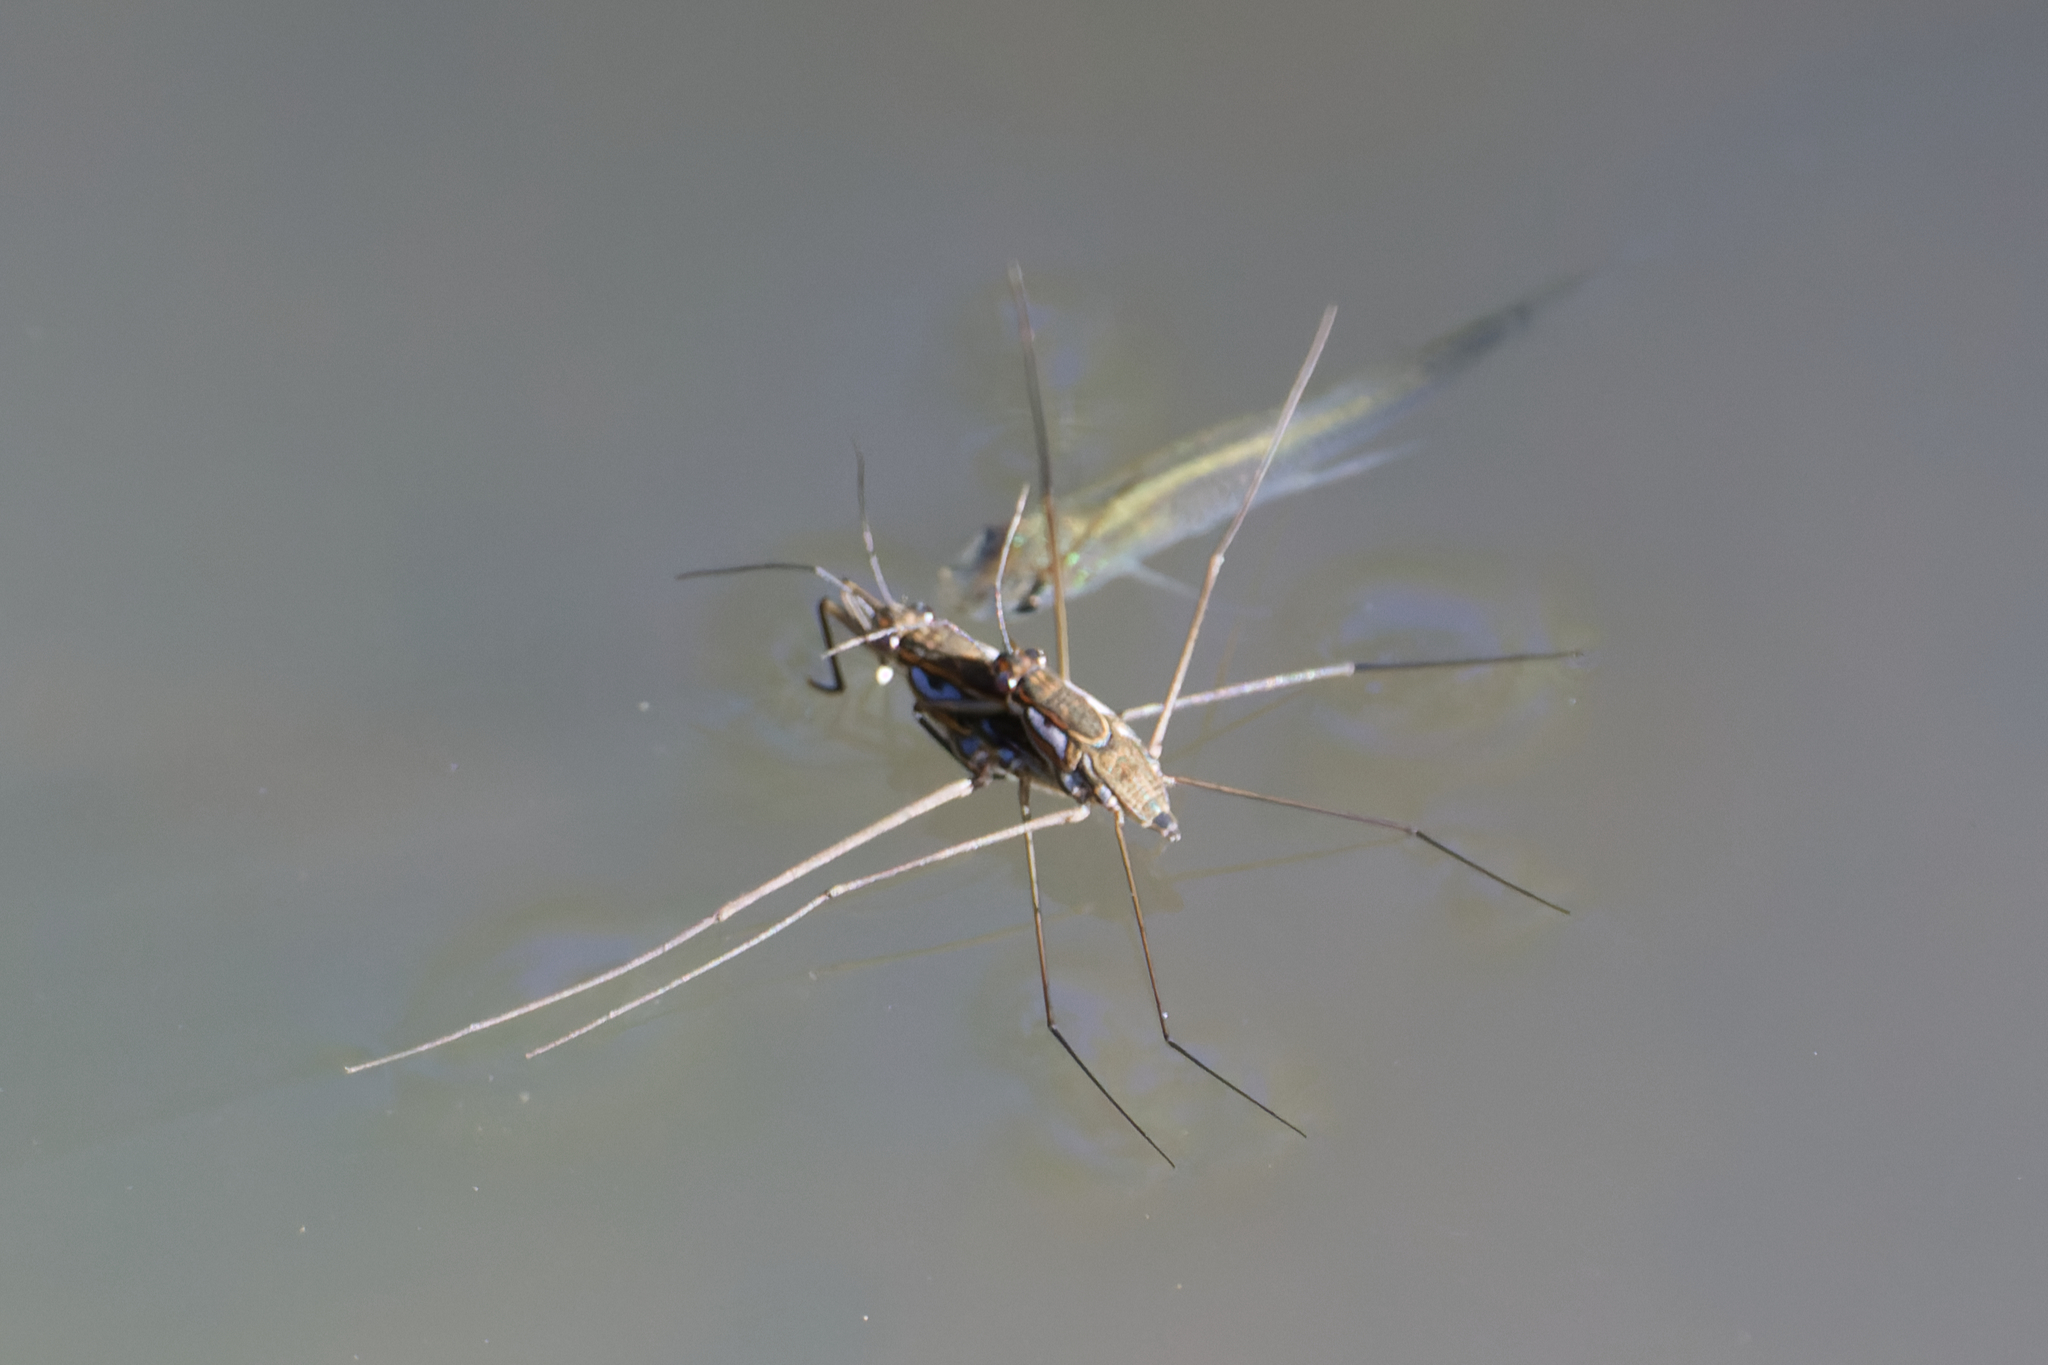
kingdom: Animalia
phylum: Chordata
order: Cyprinodontiformes
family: Poeciliidae
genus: Gambusia
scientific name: Gambusia holbrooki
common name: Eastern mosquitofish
